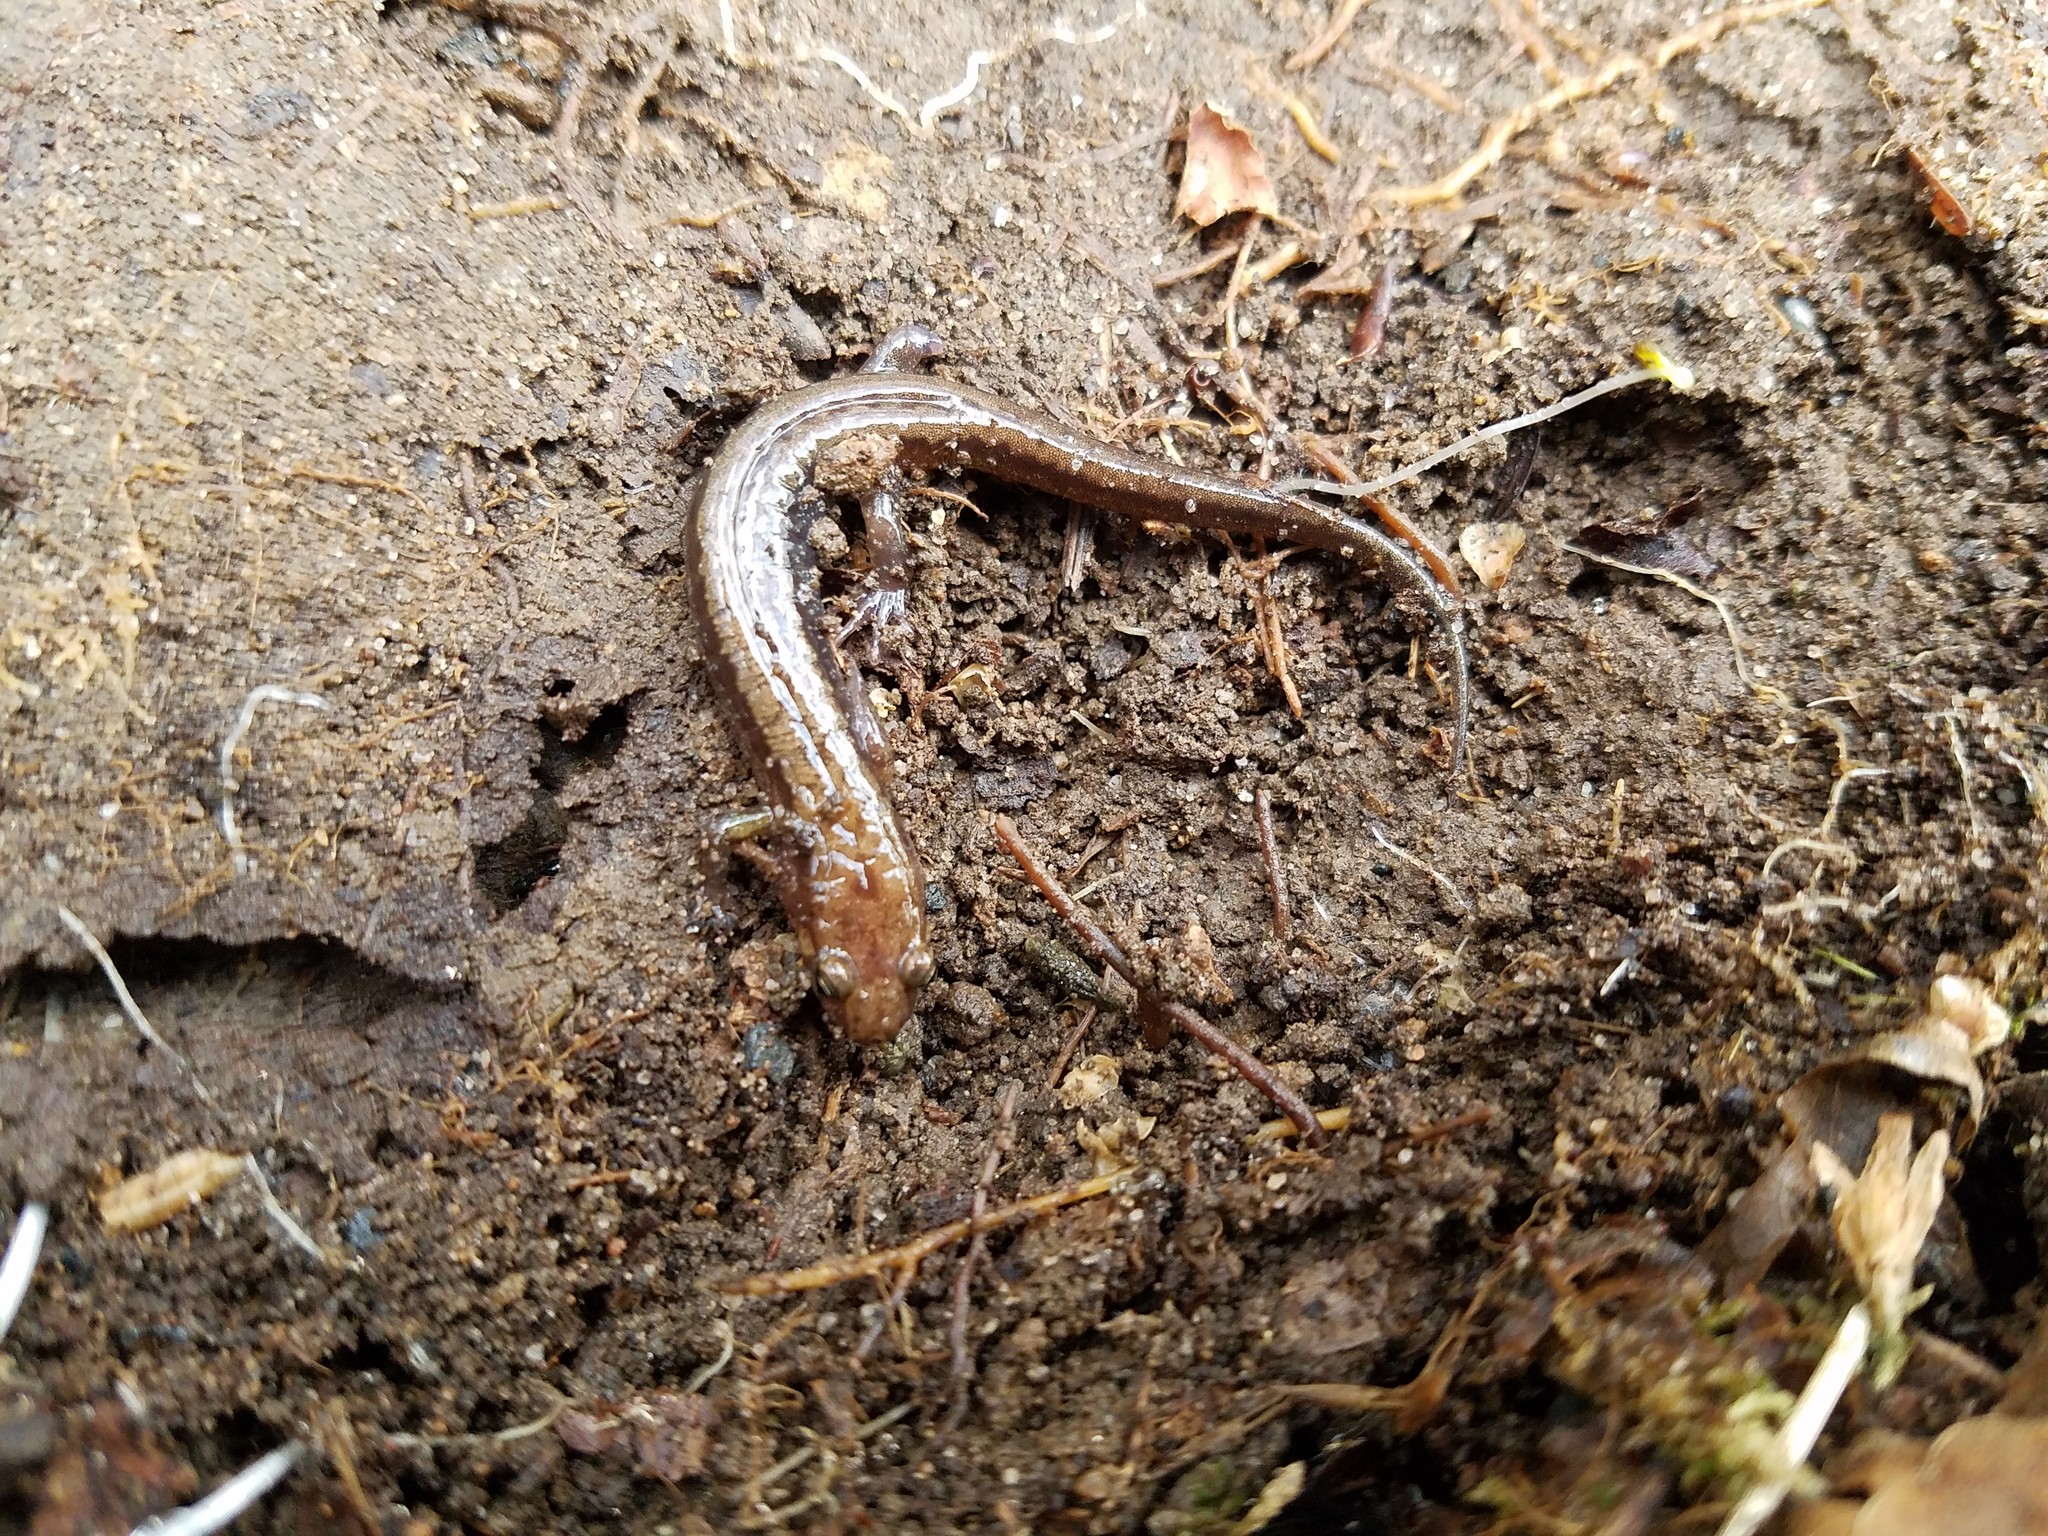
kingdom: Animalia
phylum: Chordata
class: Amphibia
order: Caudata
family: Plethodontidae
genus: Desmognathus
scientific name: Desmognathus ochrophaeus
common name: Allegheny mountain dusky salamander
